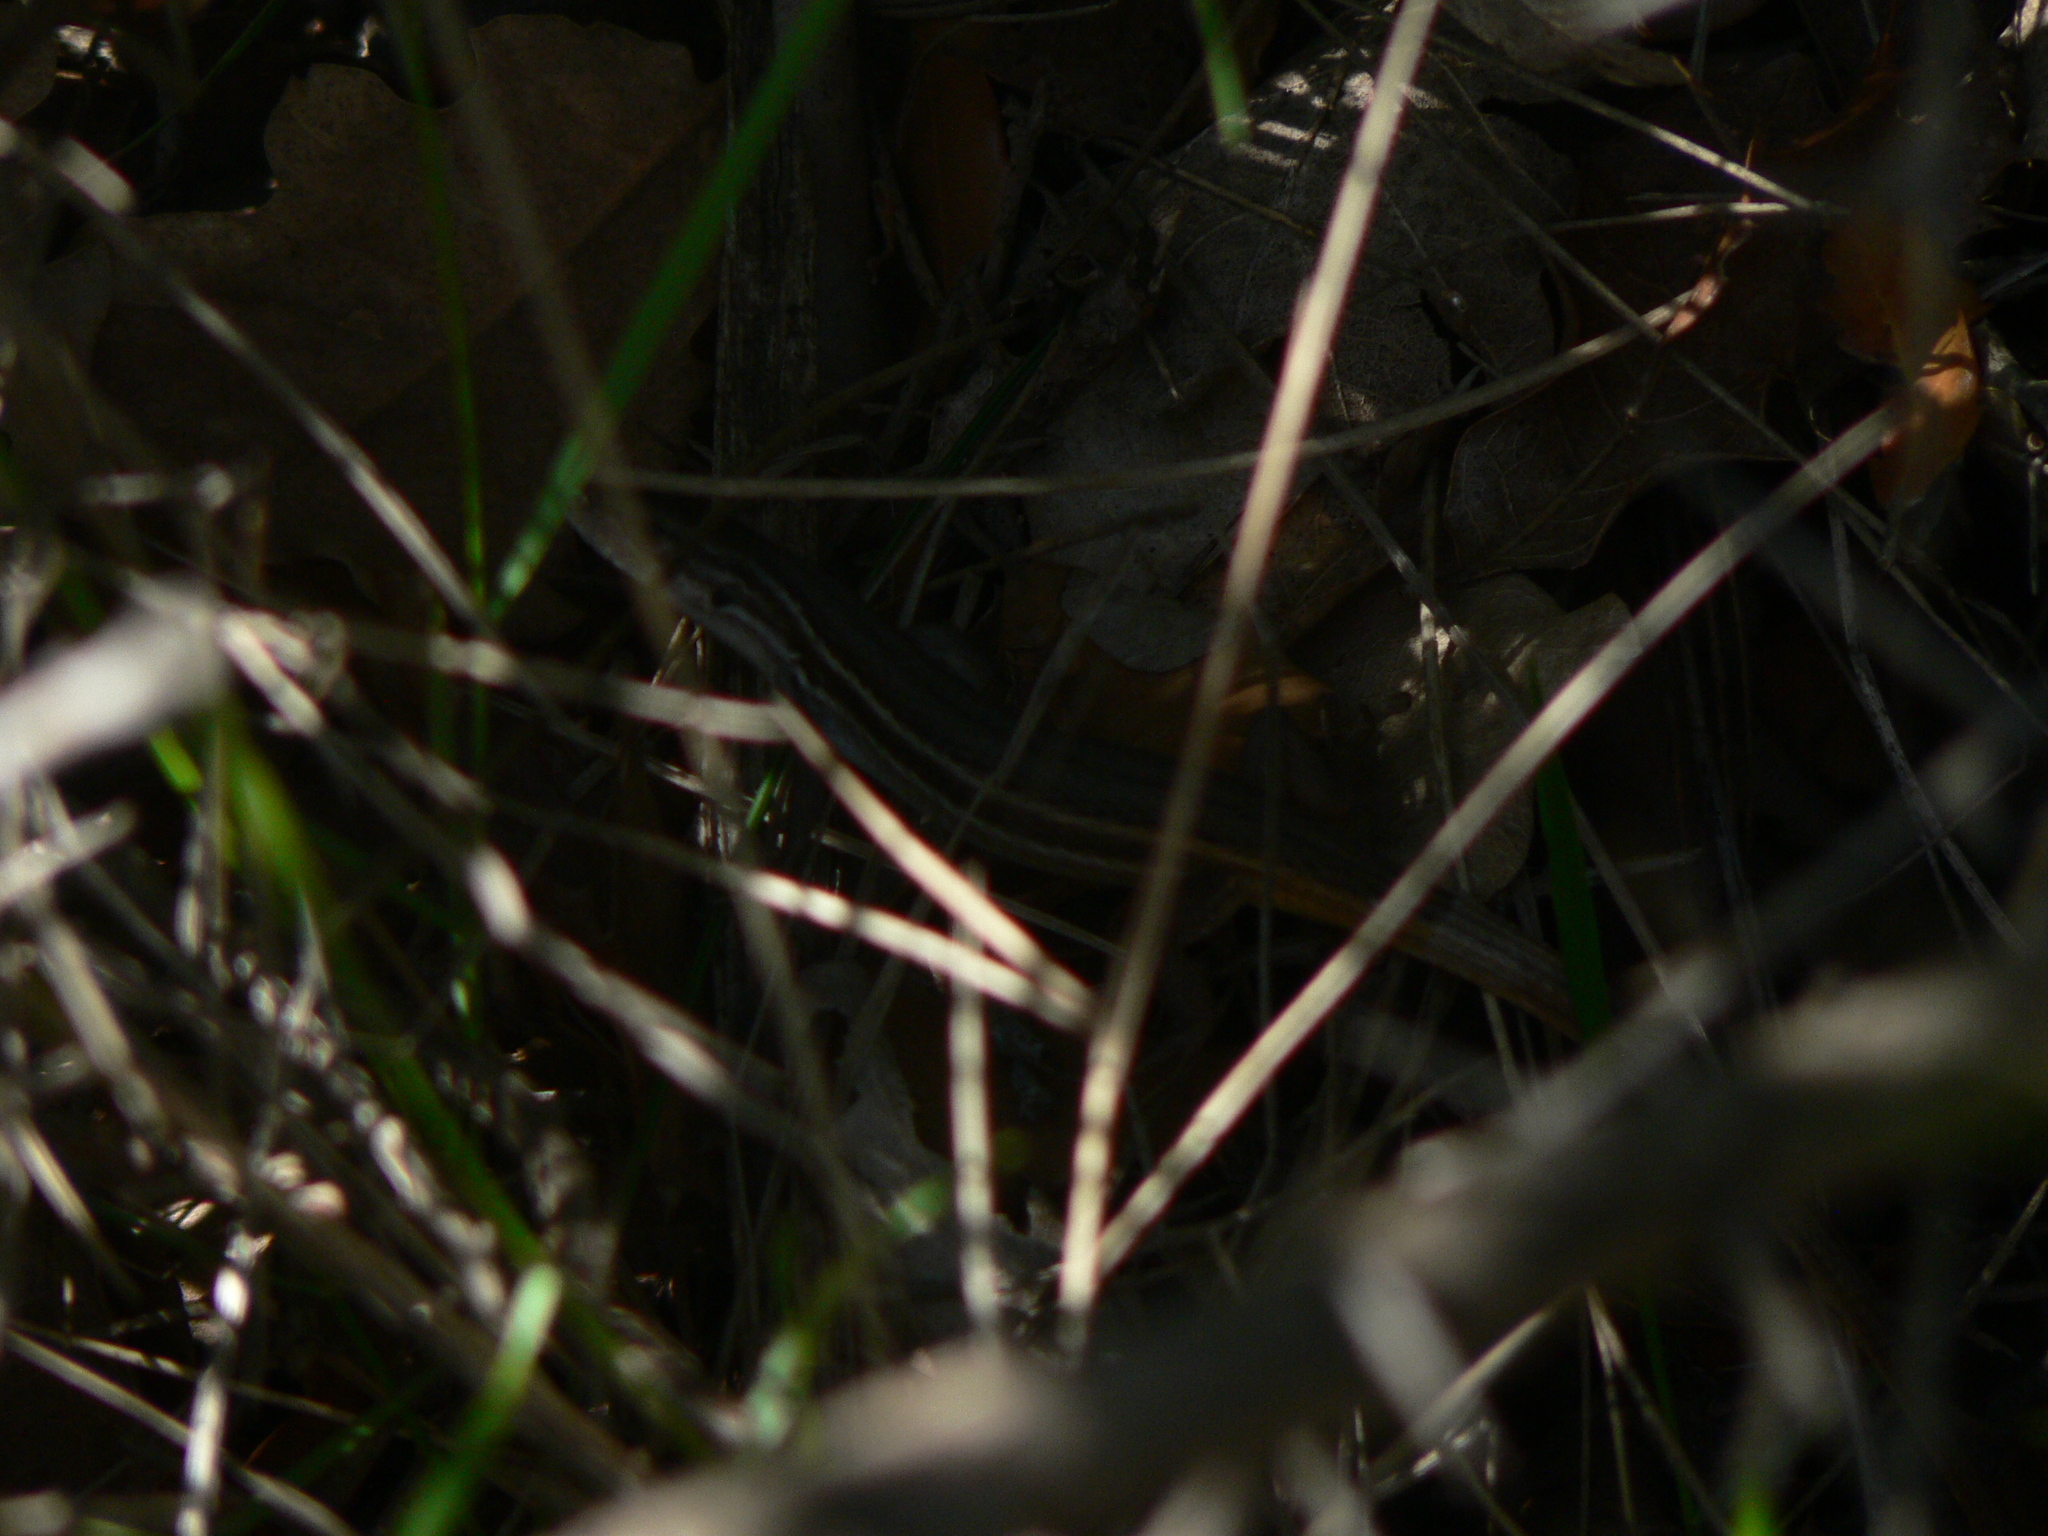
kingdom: Animalia
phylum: Chordata
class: Squamata
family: Lacertidae
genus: Psammodromus
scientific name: Psammodromus algirus
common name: Algerian psammodromus
